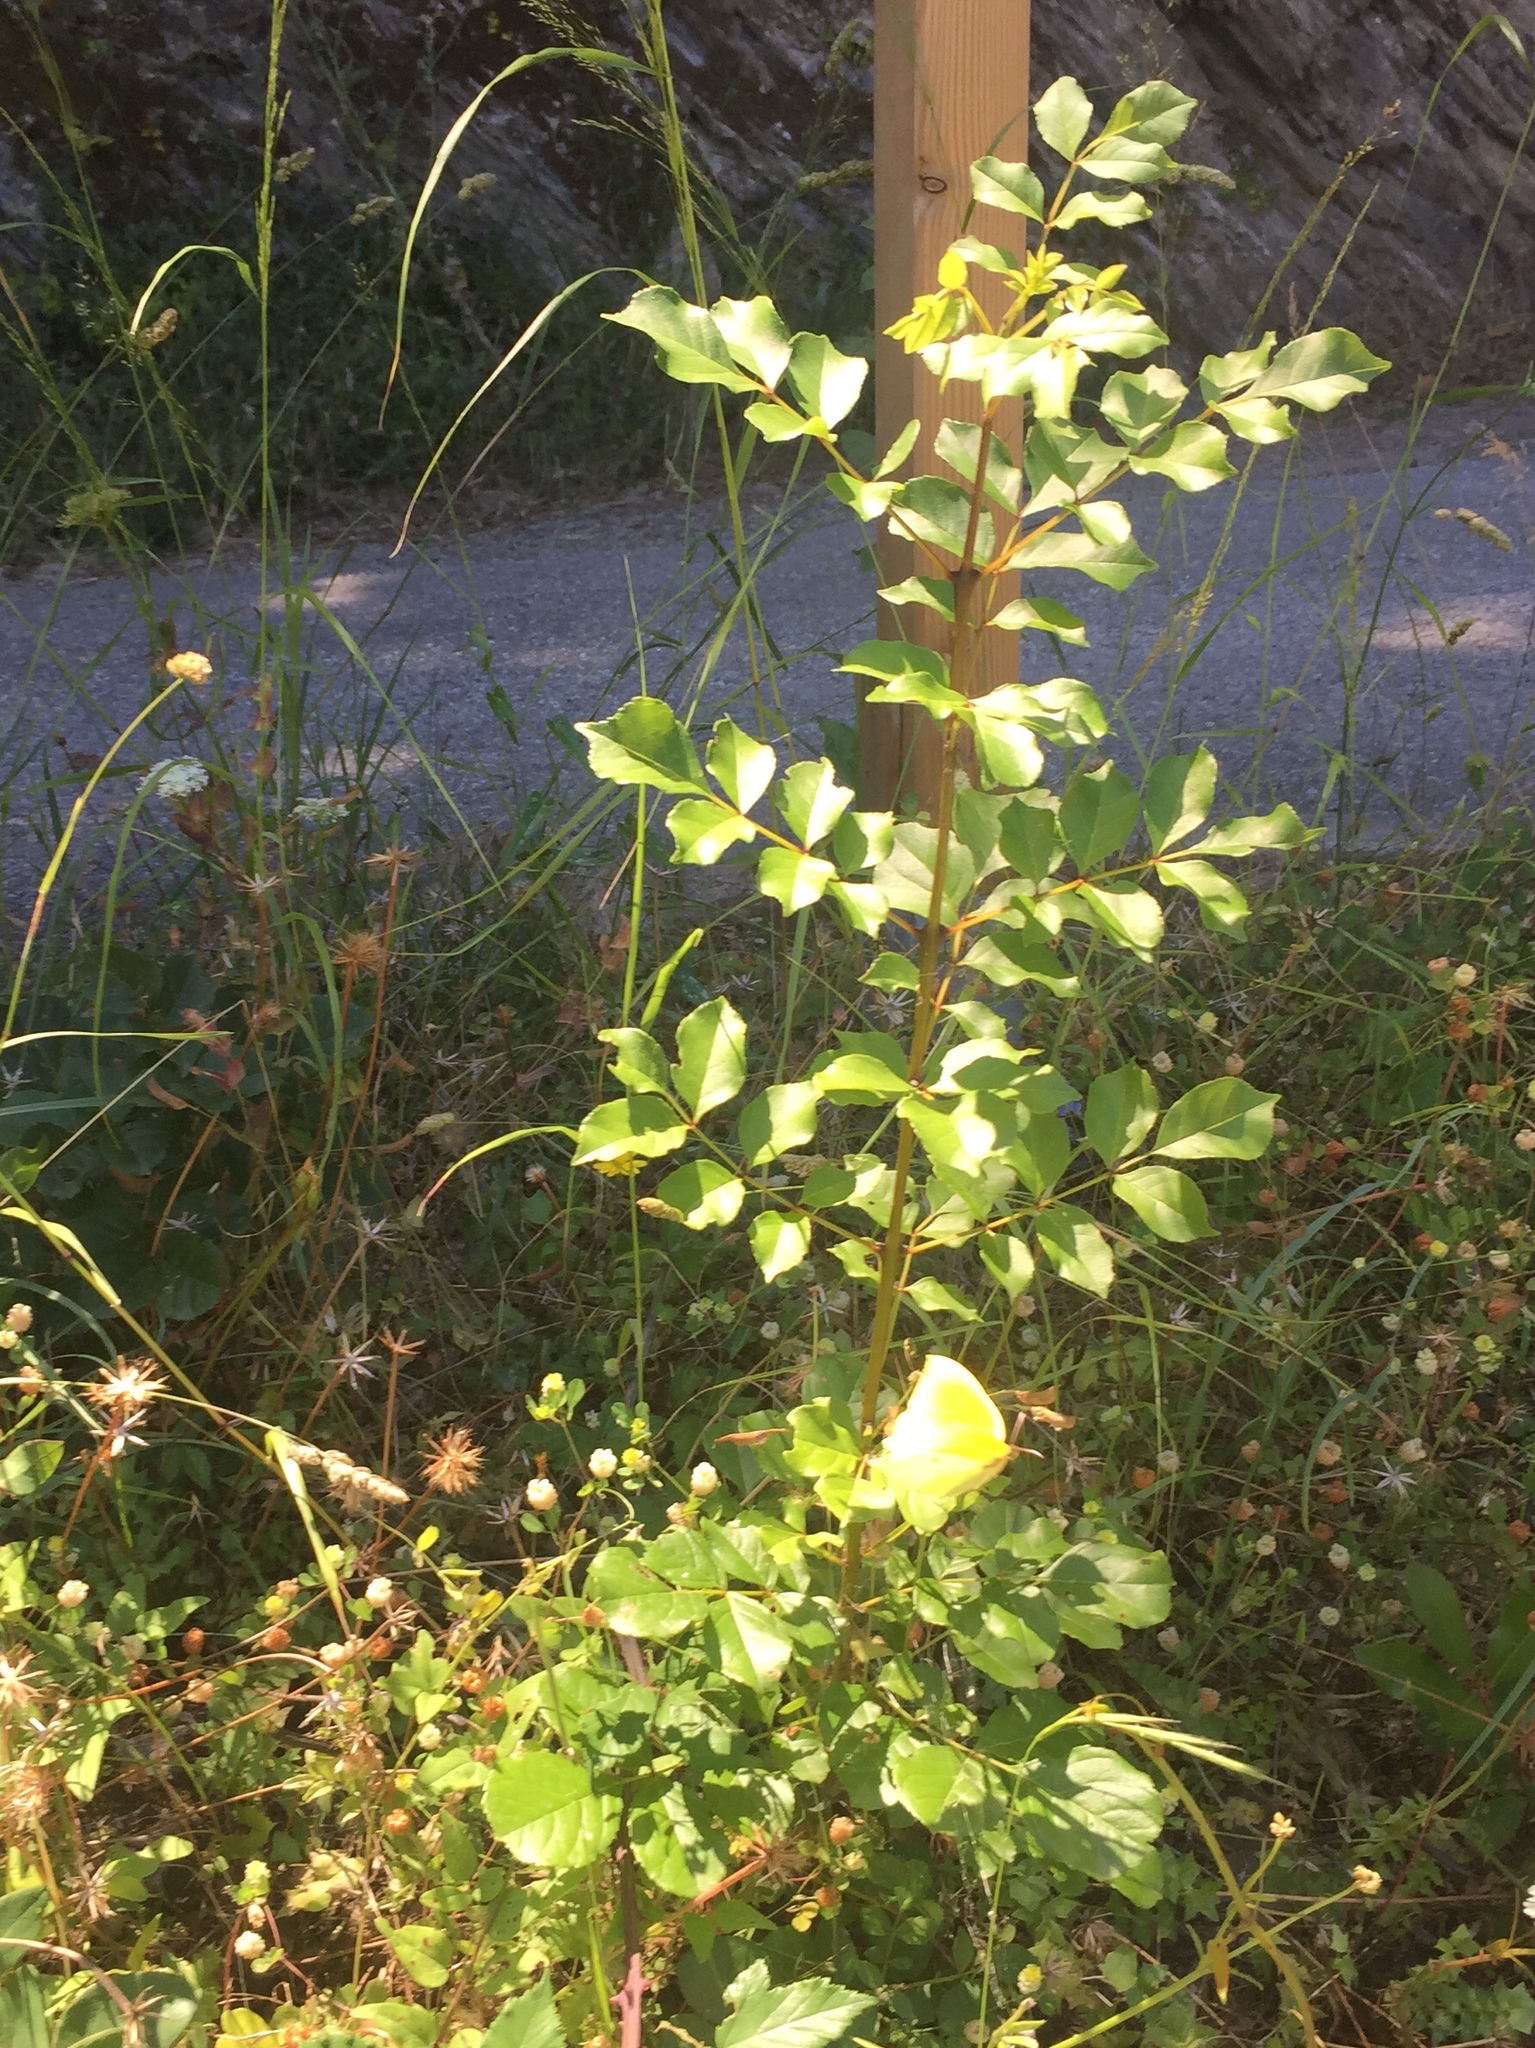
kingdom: Animalia
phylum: Arthropoda
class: Insecta
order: Lepidoptera
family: Pieridae
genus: Gonepteryx
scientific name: Gonepteryx cleopatra
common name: Cleopatra
